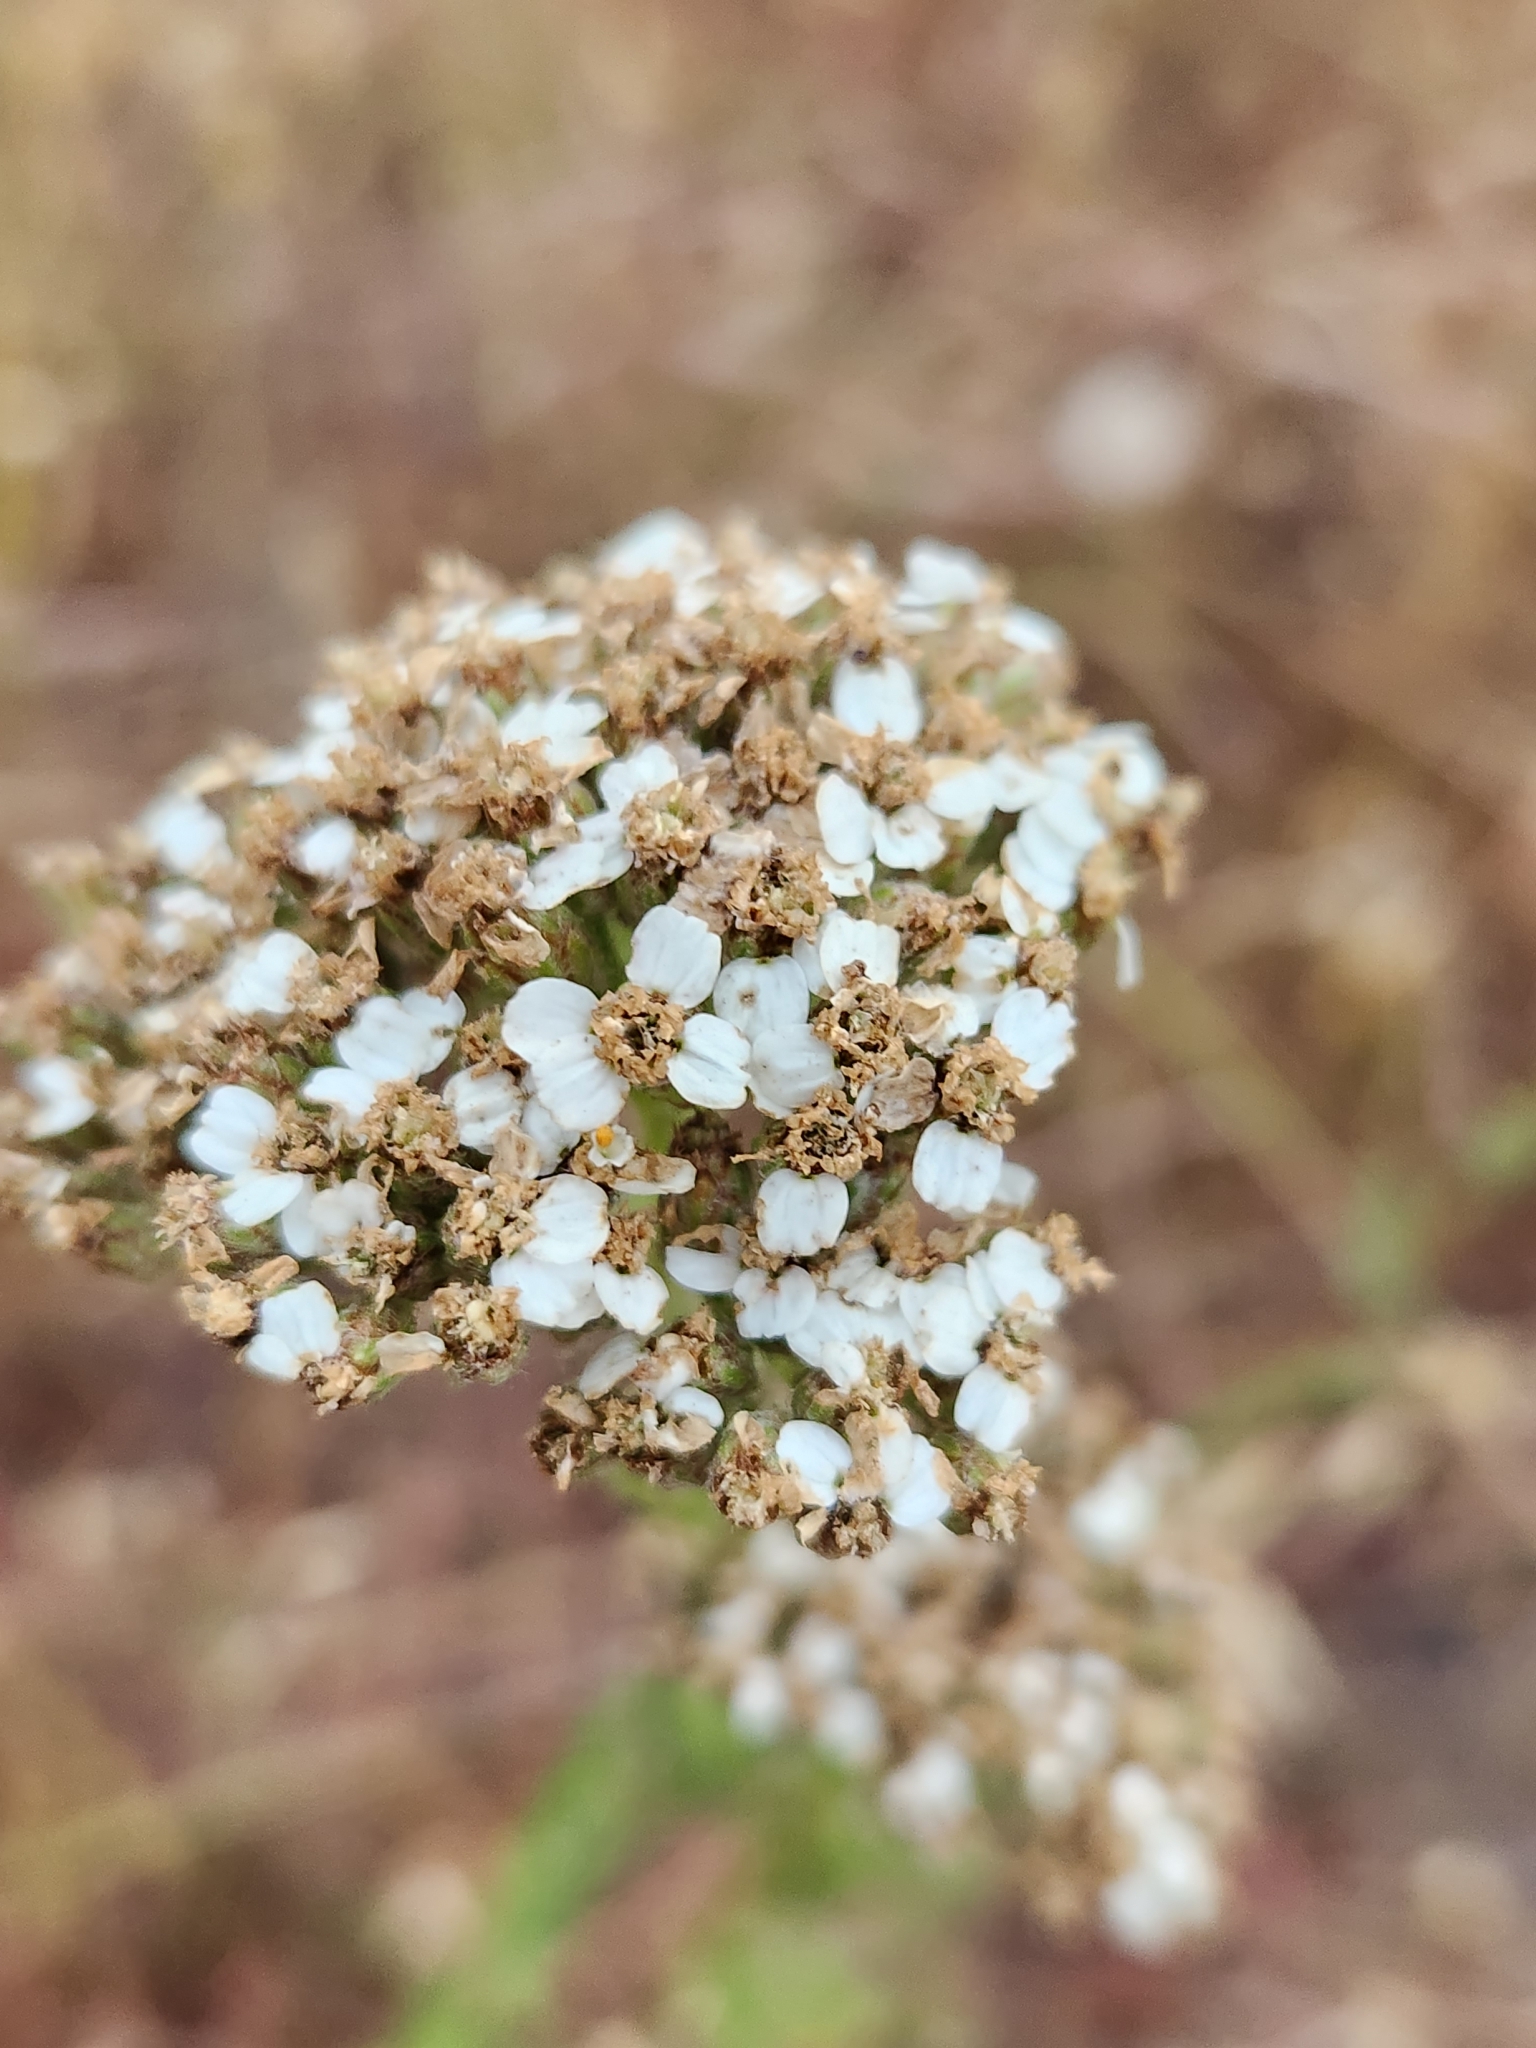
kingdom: Plantae
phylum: Tracheophyta
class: Magnoliopsida
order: Asterales
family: Asteraceae
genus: Achillea
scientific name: Achillea millefolium
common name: Yarrow
